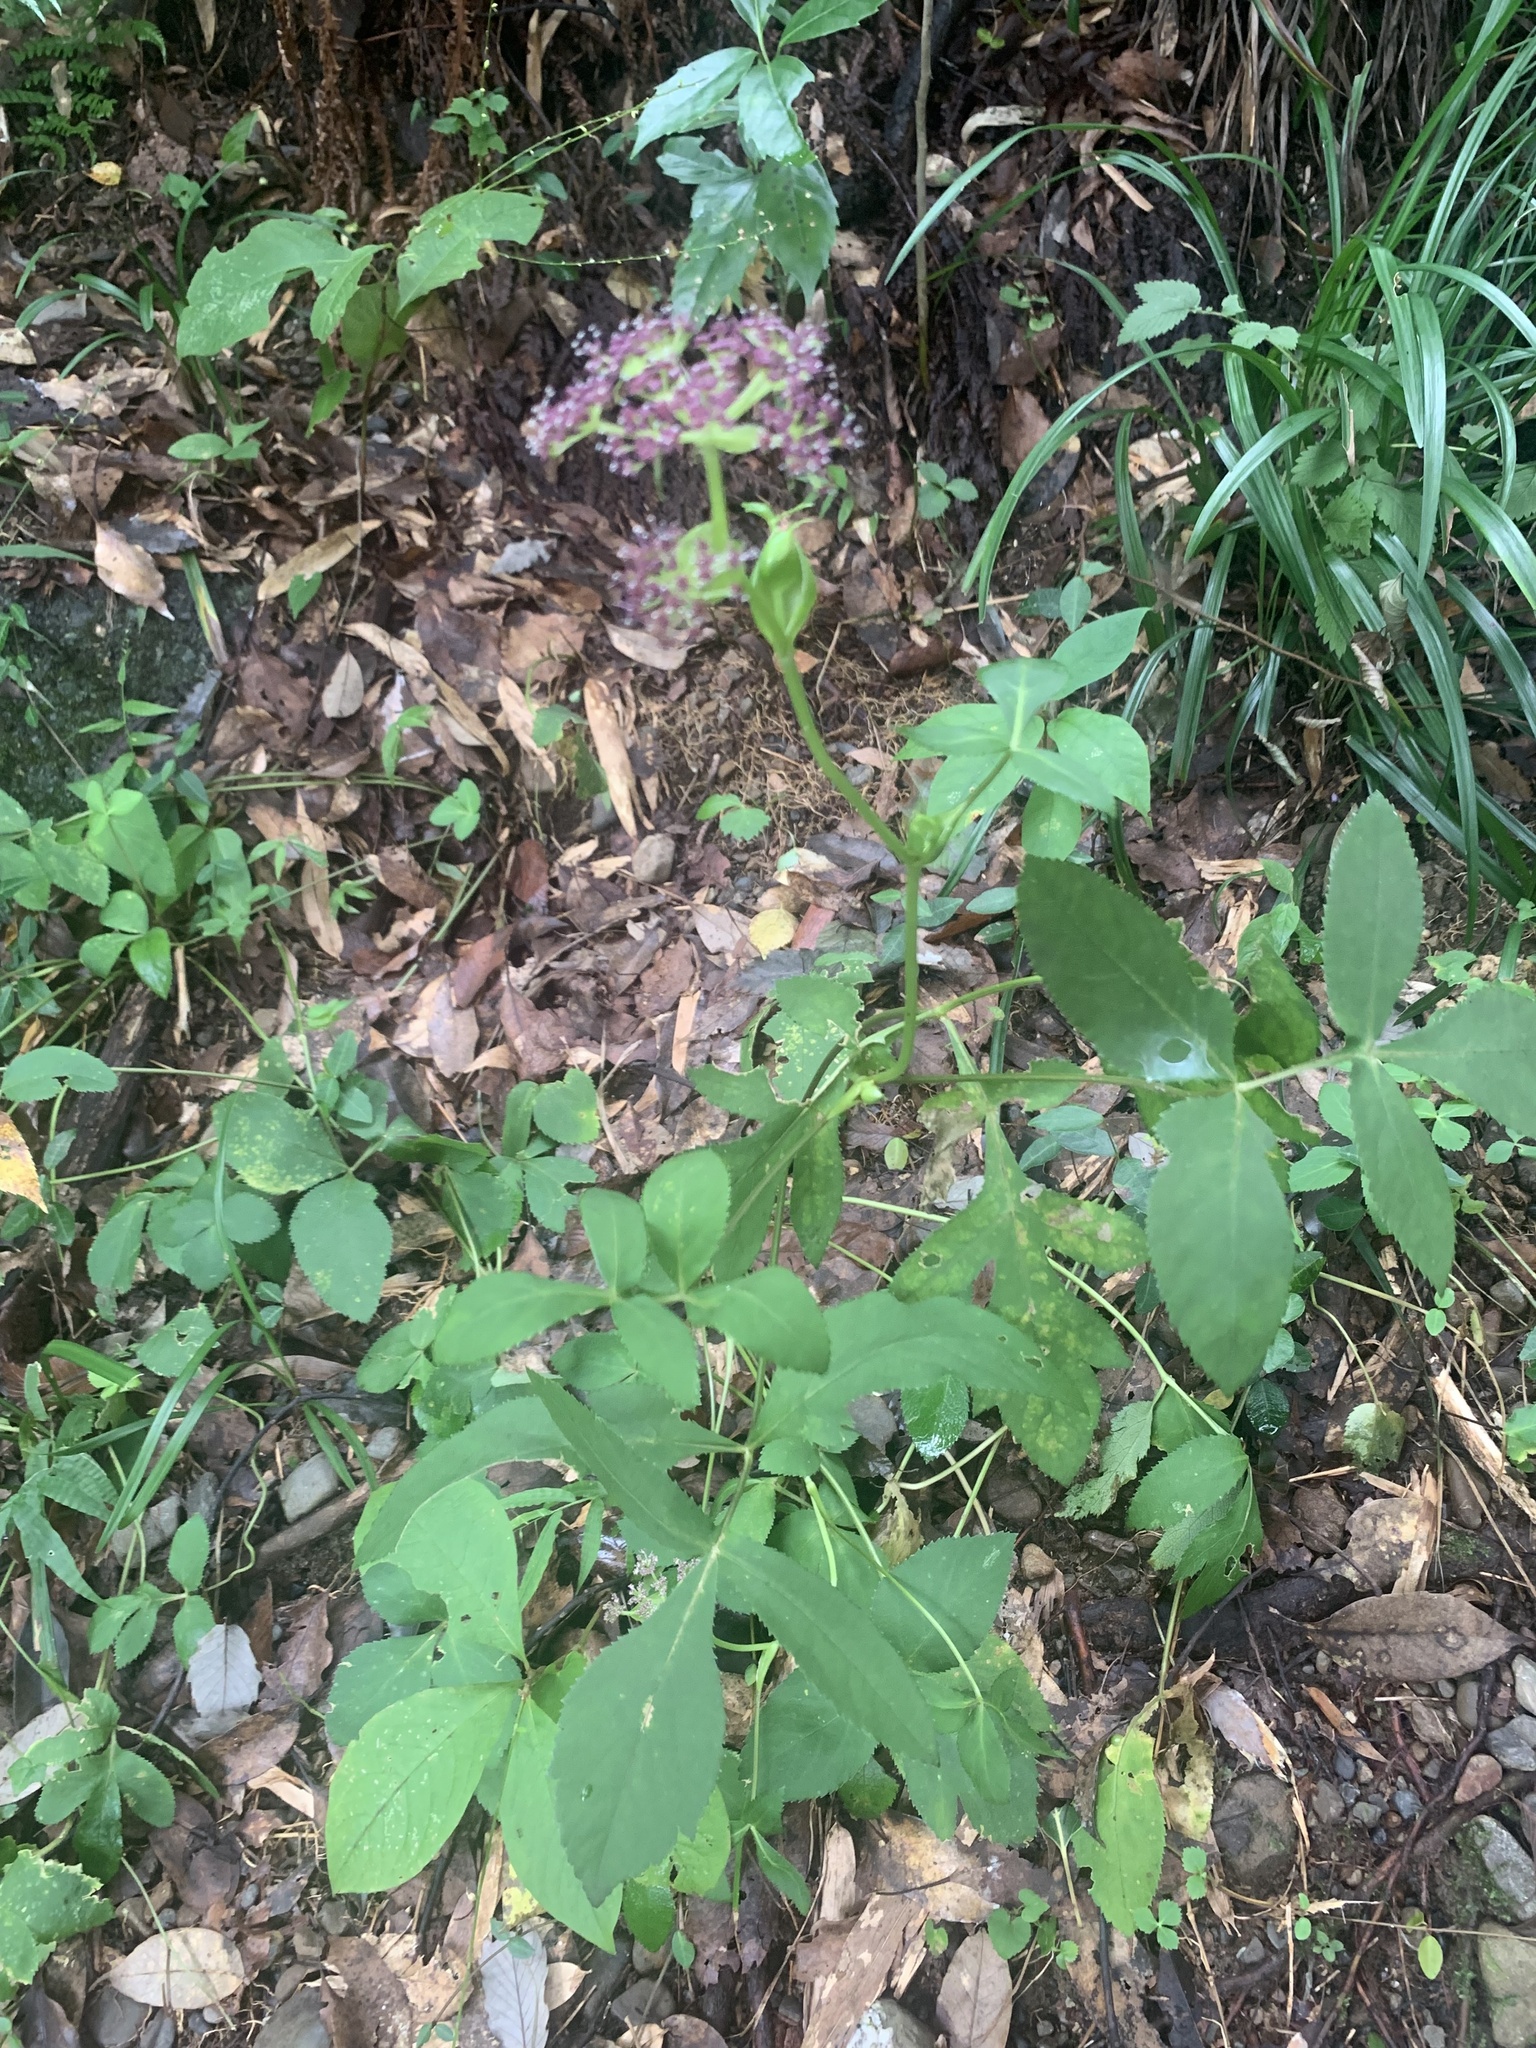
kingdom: Plantae
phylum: Tracheophyta
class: Magnoliopsida
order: Apiales
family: Apiaceae
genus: Halosciastrum
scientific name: Halosciastrum melanotilingia
